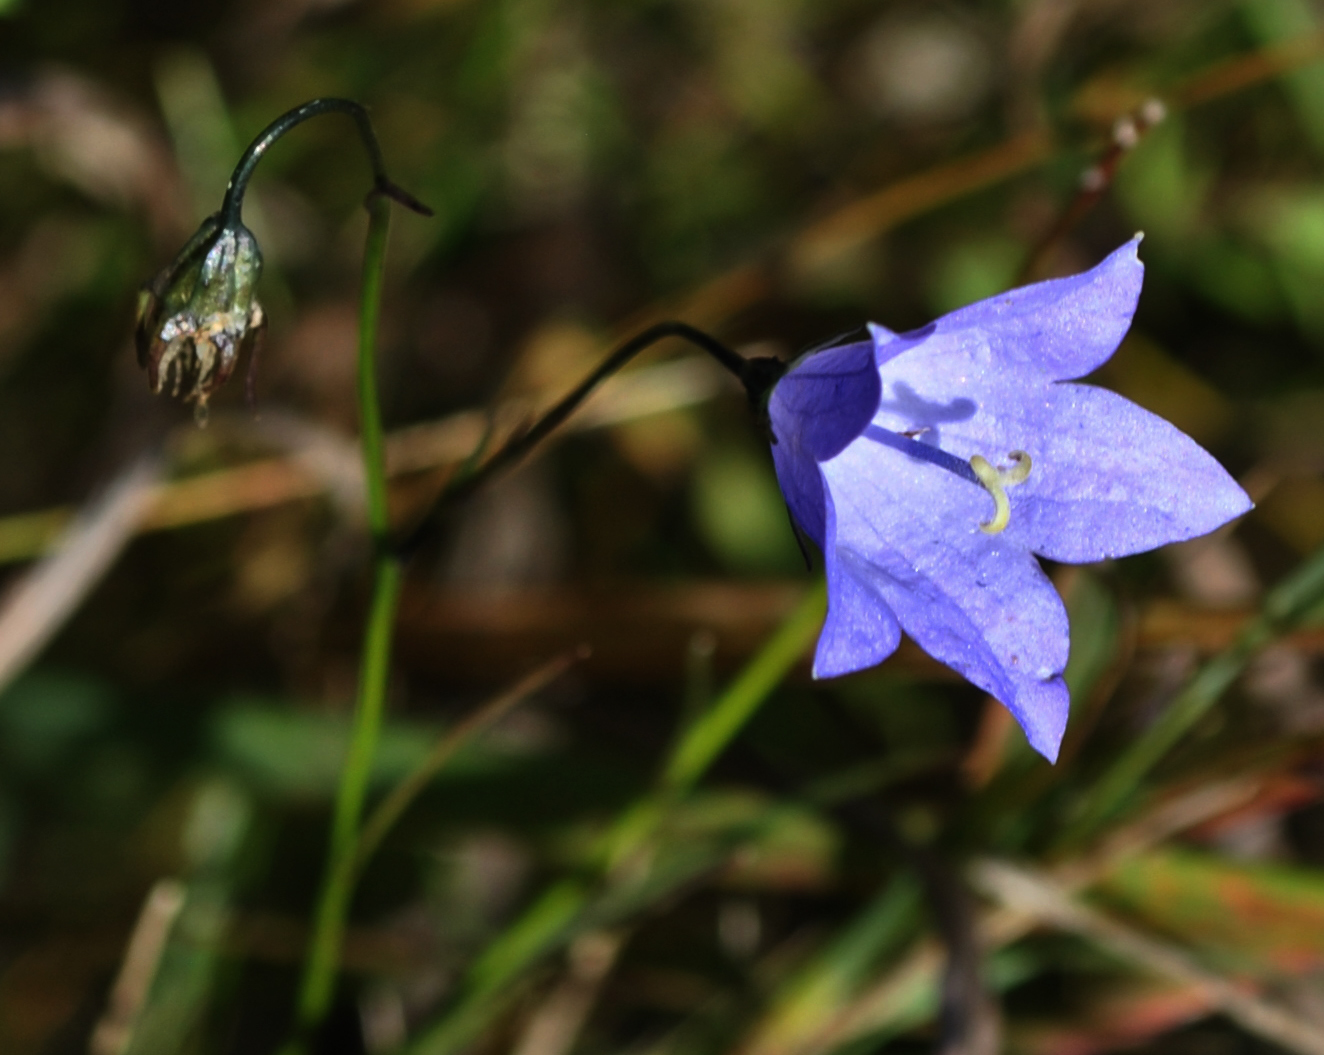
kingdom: Plantae
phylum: Tracheophyta
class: Magnoliopsida
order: Asterales
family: Campanulaceae
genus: Campanula
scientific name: Campanula intercedens
